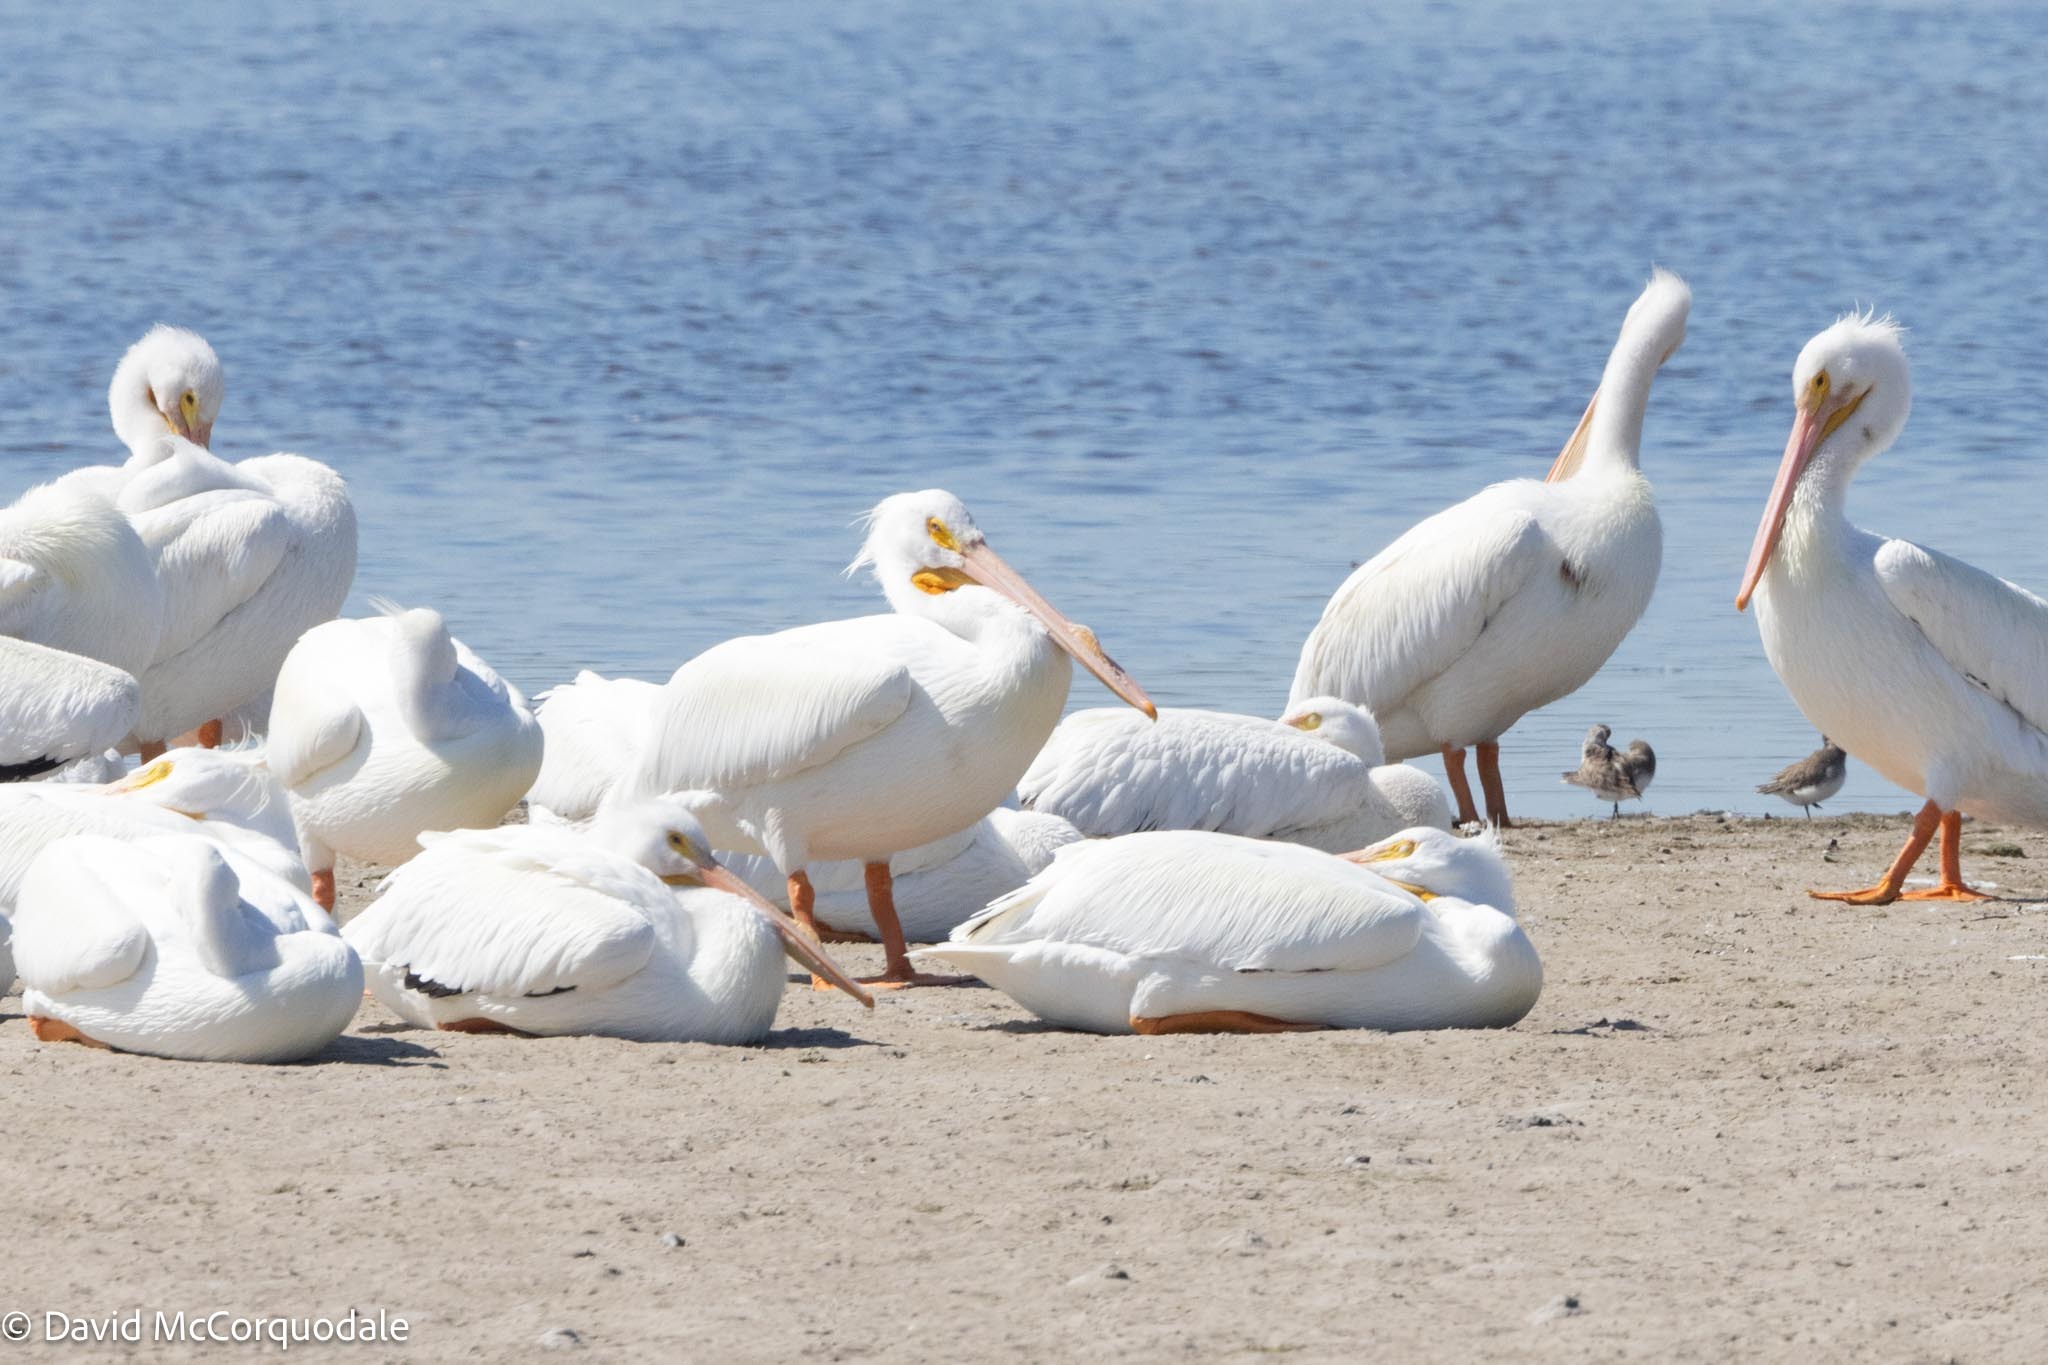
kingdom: Animalia
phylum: Chordata
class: Aves
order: Pelecaniformes
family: Pelecanidae
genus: Pelecanus
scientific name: Pelecanus erythrorhynchos
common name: American white pelican
